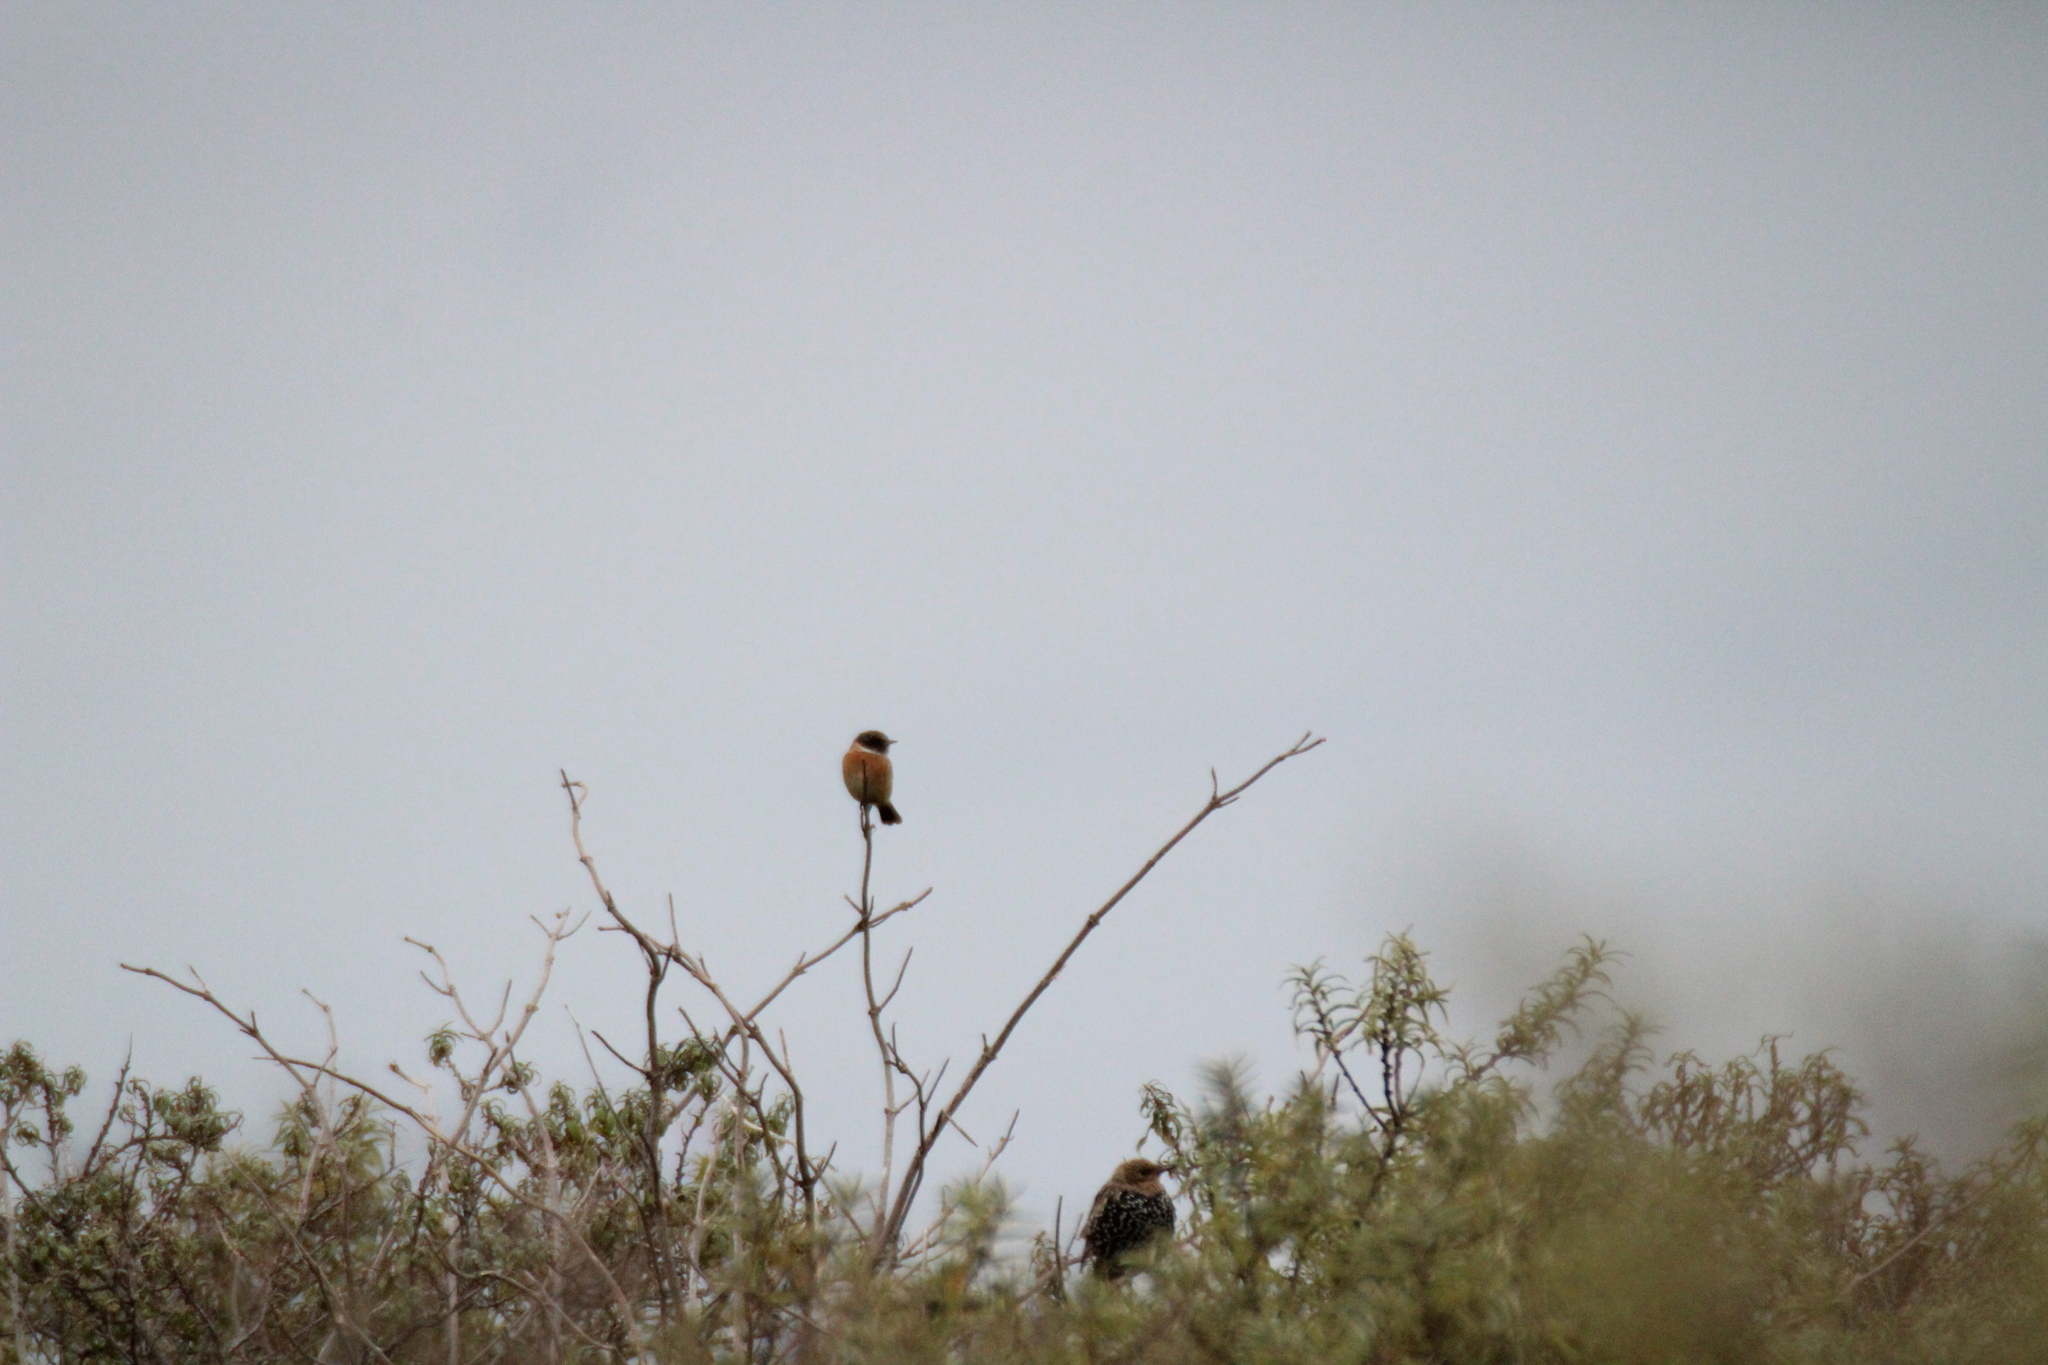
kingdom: Animalia
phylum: Chordata
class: Aves
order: Passeriformes
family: Muscicapidae
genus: Saxicola
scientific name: Saxicola rubicola
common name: European stonechat
